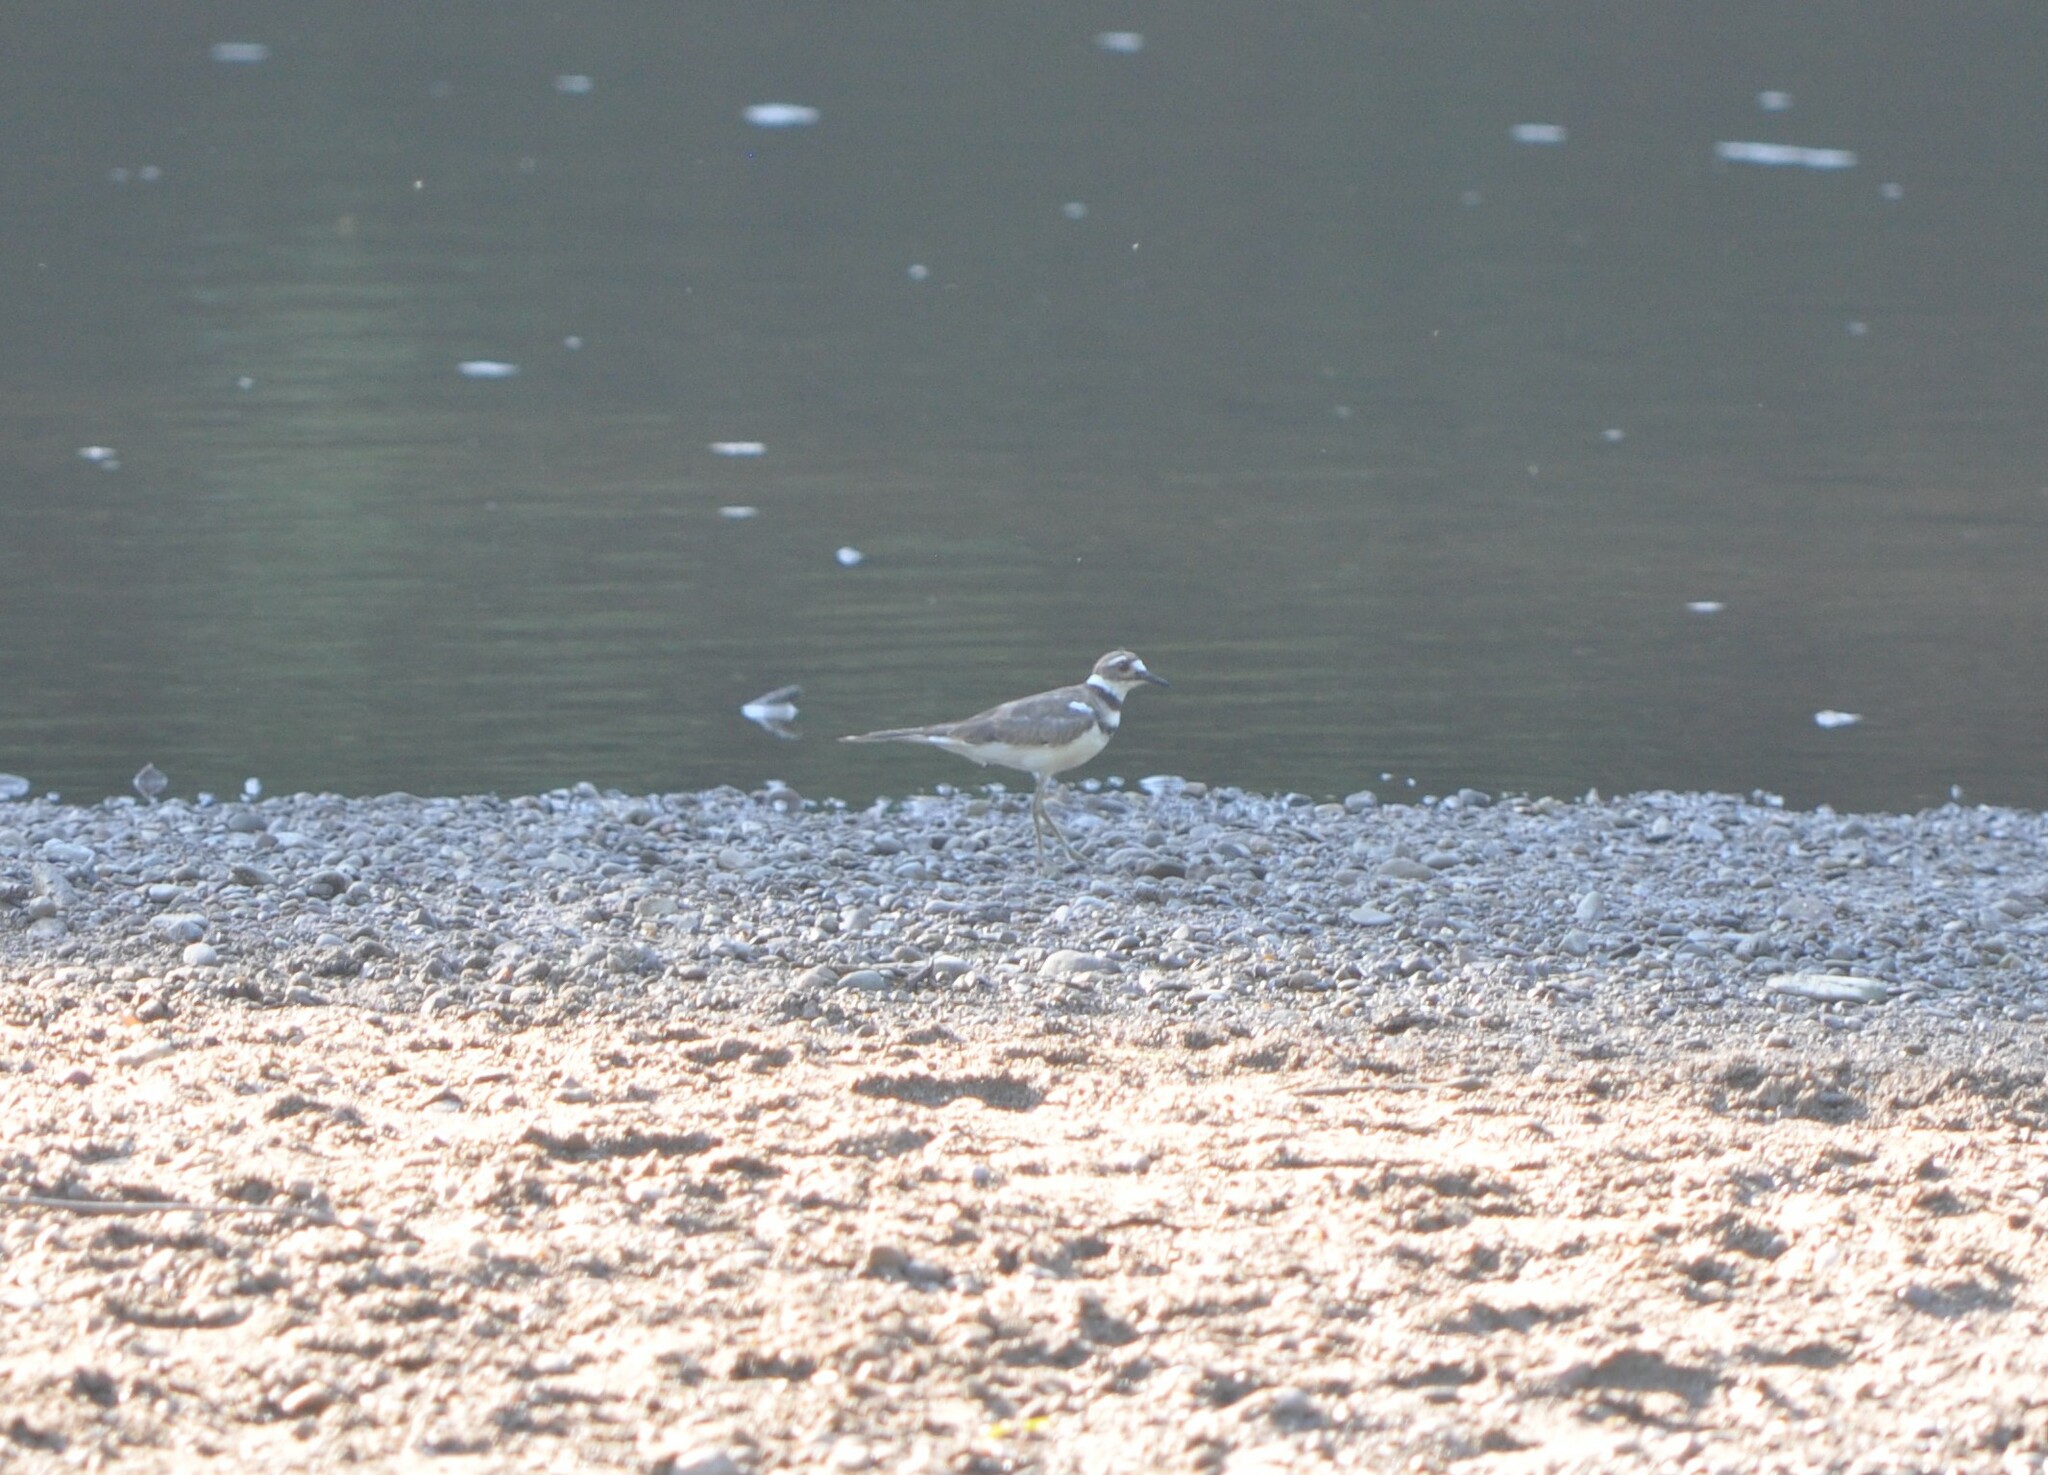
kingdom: Animalia
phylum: Chordata
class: Aves
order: Charadriiformes
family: Charadriidae
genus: Charadrius
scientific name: Charadrius vociferus
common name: Killdeer
